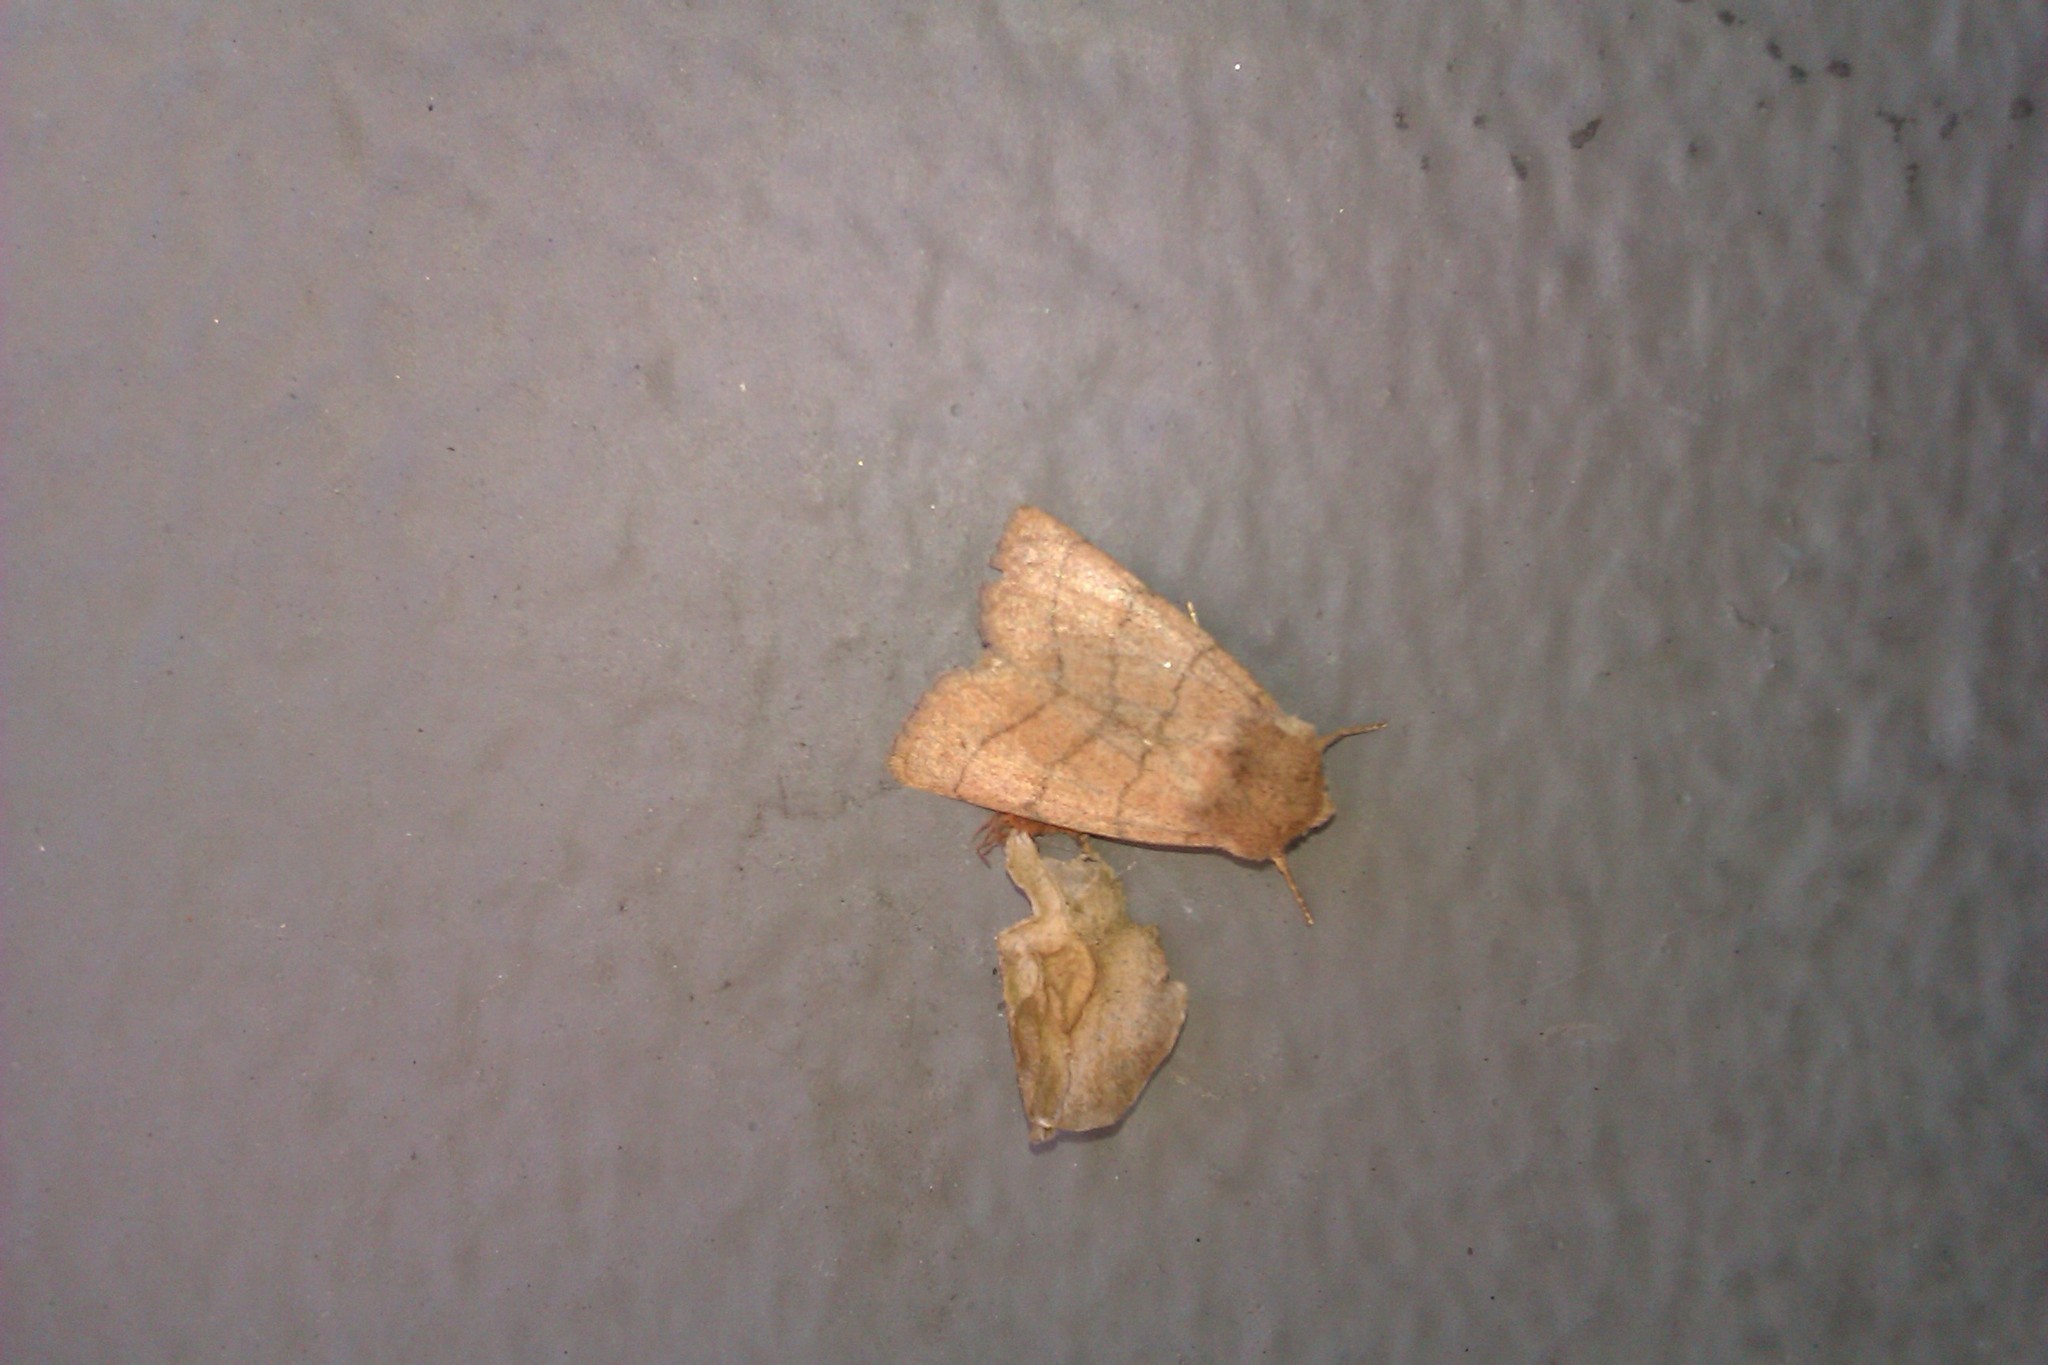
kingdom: Animalia
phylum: Arthropoda
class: Insecta
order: Lepidoptera
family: Noctuidae
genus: Charanyca
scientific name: Charanyca trigrammica
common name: Treble lines
